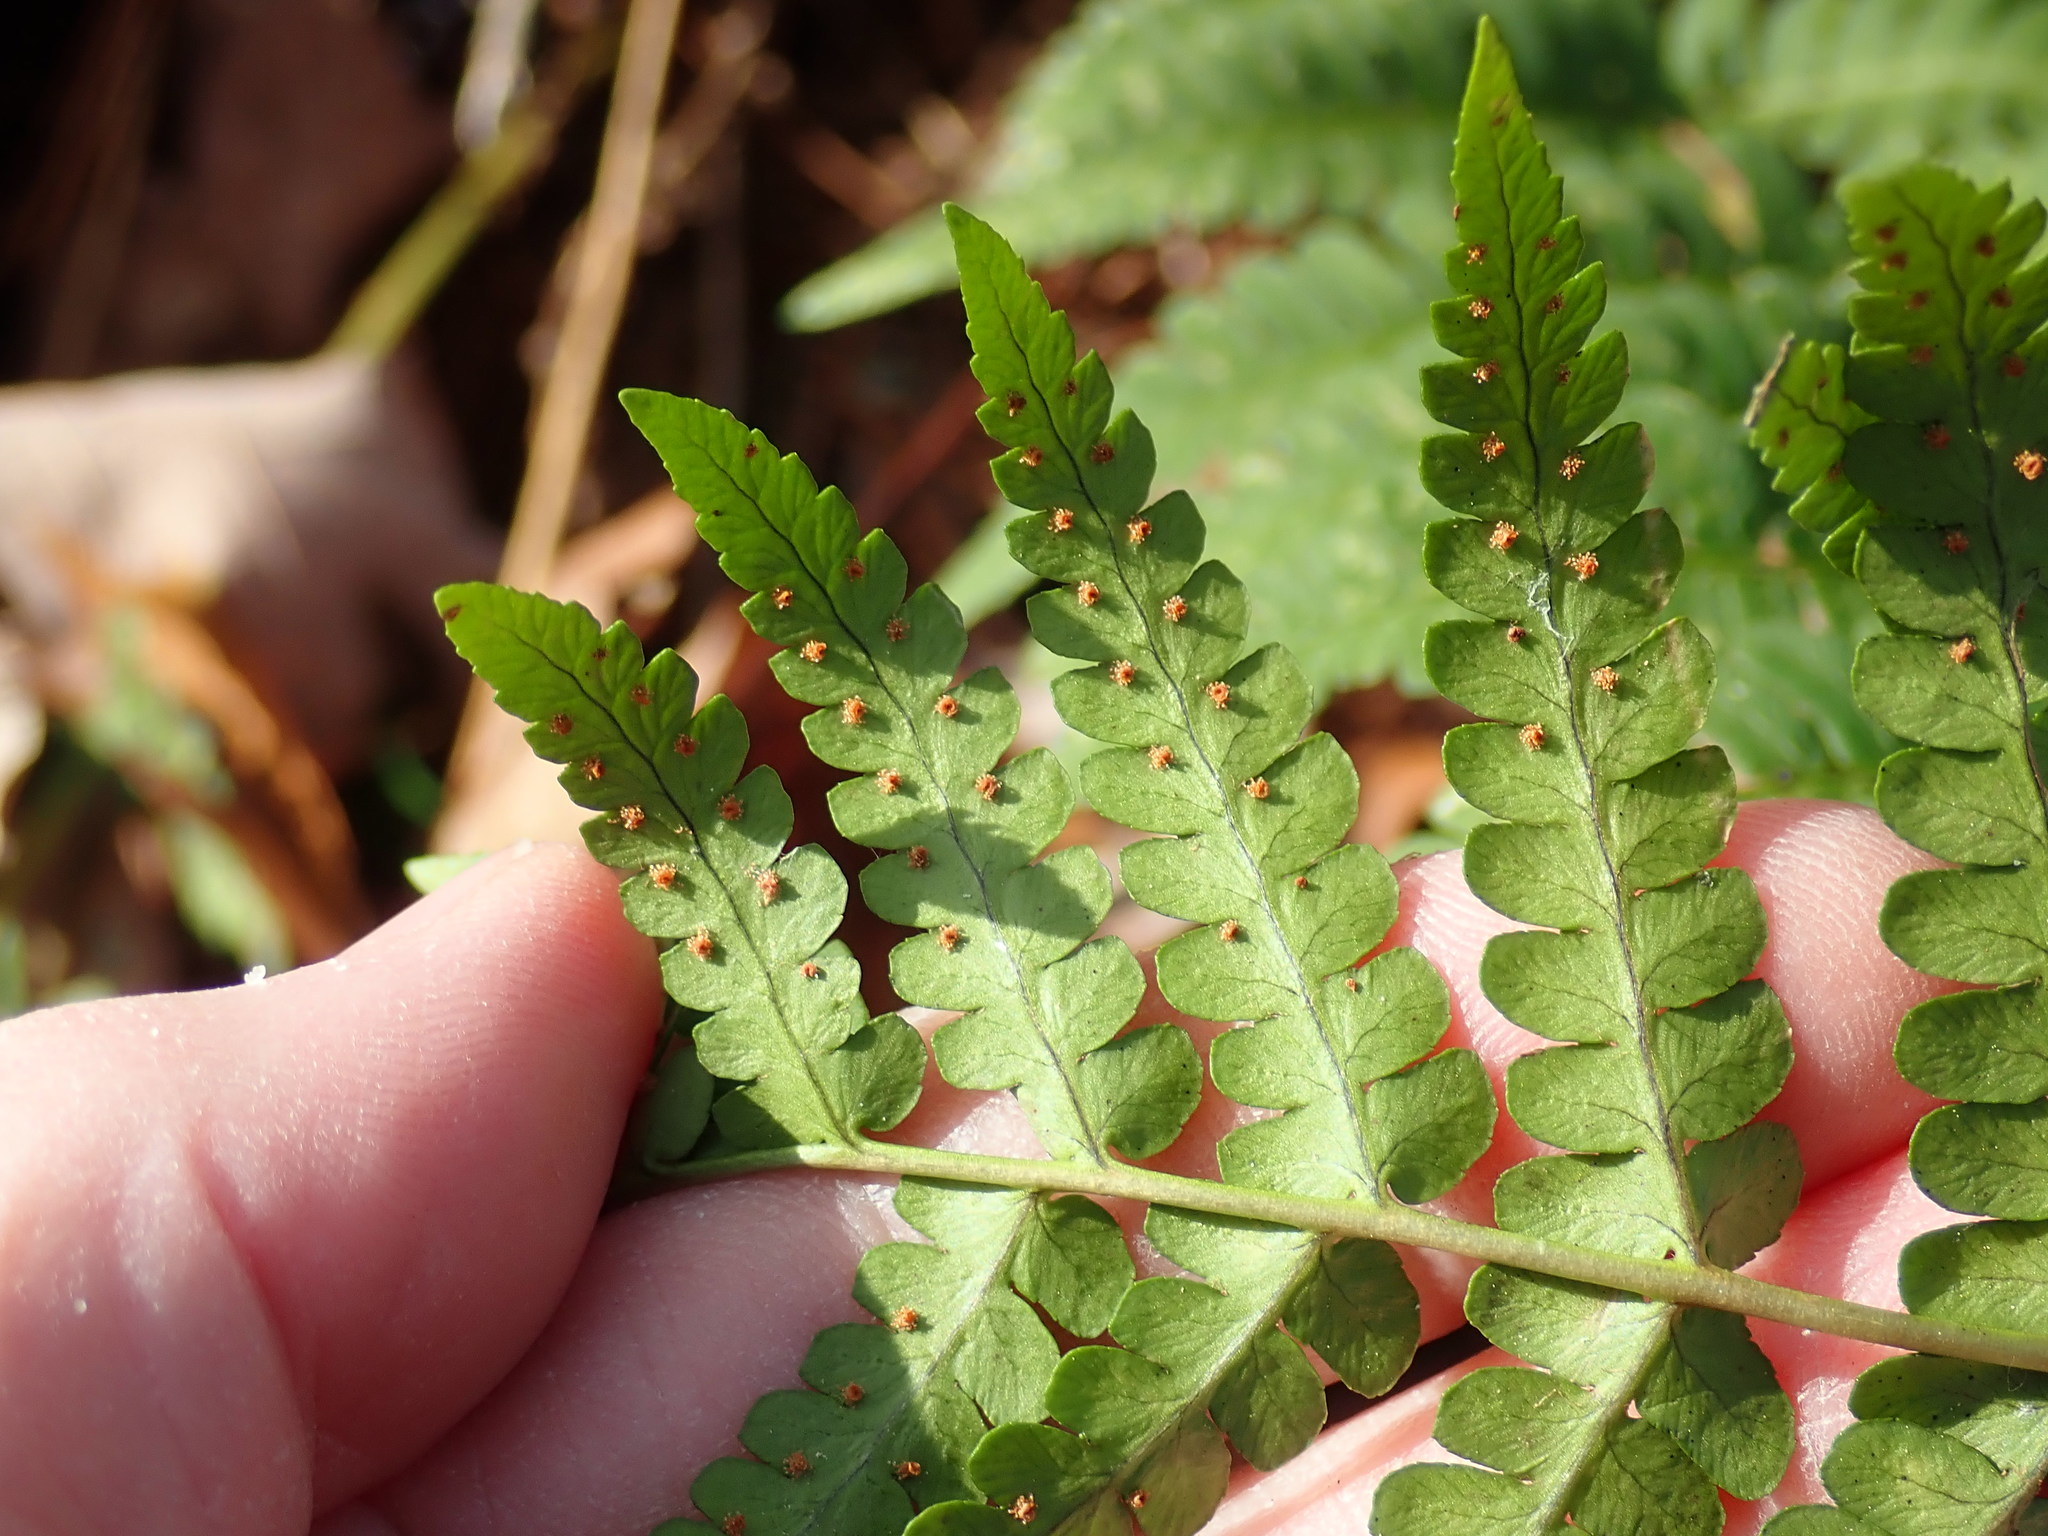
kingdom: Plantae
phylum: Tracheophyta
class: Polypodiopsida
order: Polypodiales
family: Dryopteridaceae
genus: Dryopteris
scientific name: Dryopteris marginalis
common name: Marginal wood fern
